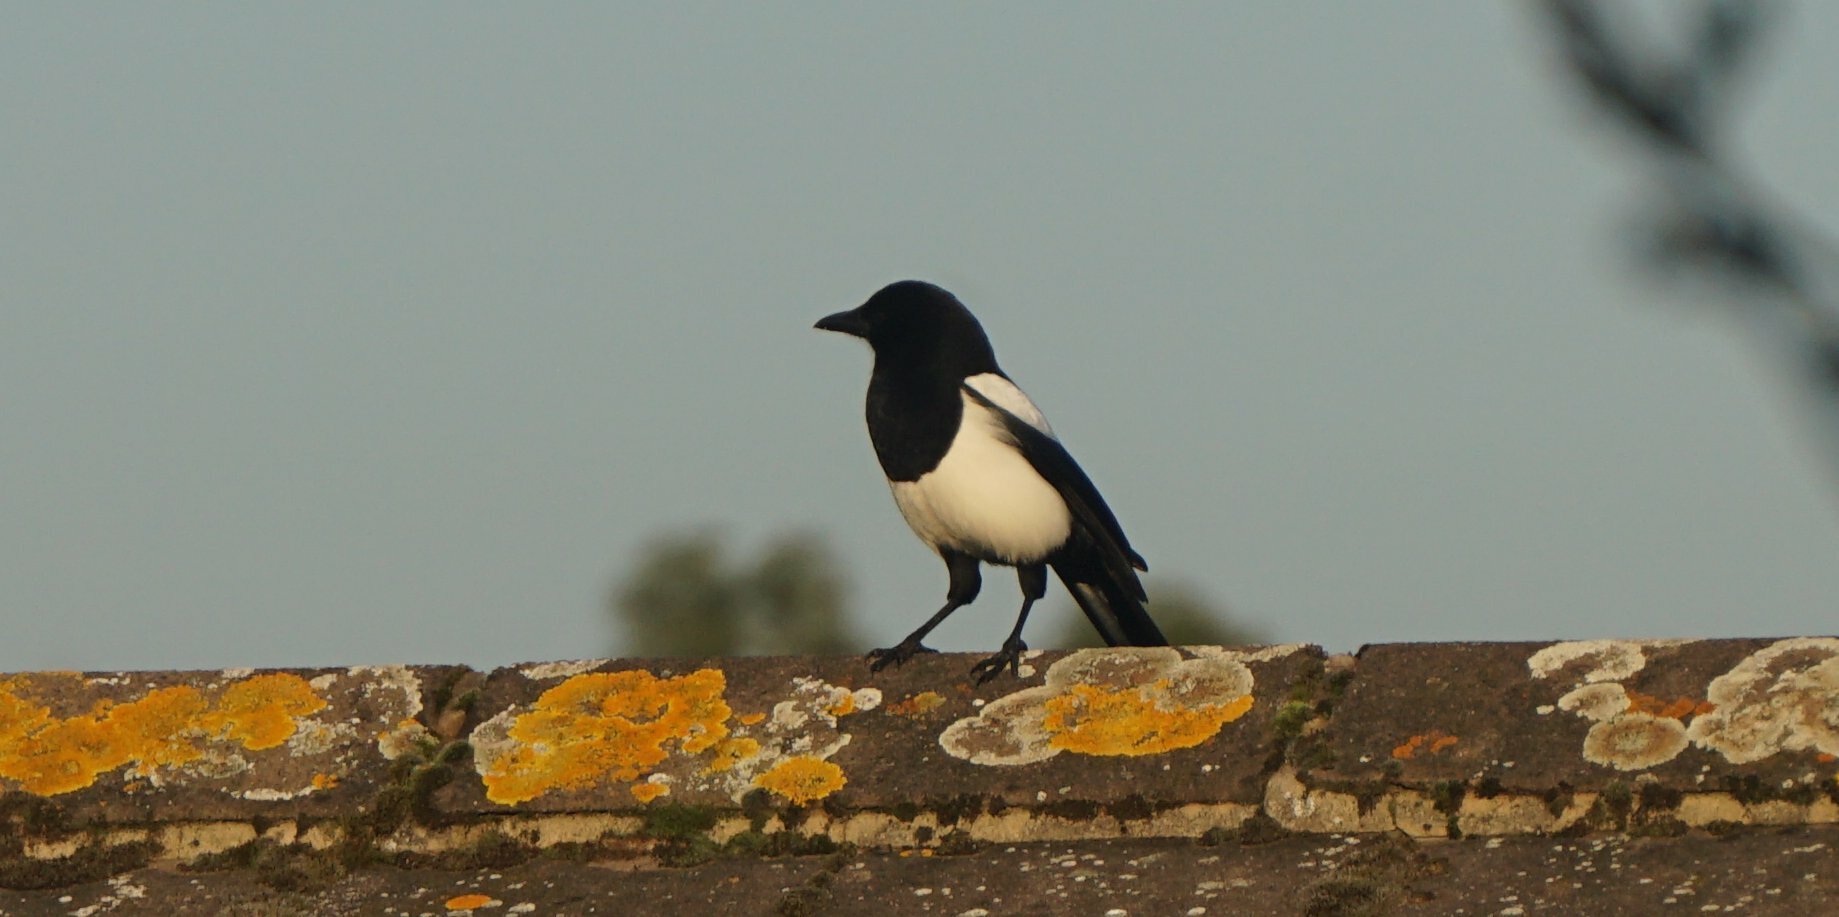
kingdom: Animalia
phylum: Chordata
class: Aves
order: Passeriformes
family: Corvidae
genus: Pica
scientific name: Pica pica
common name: Eurasian magpie
